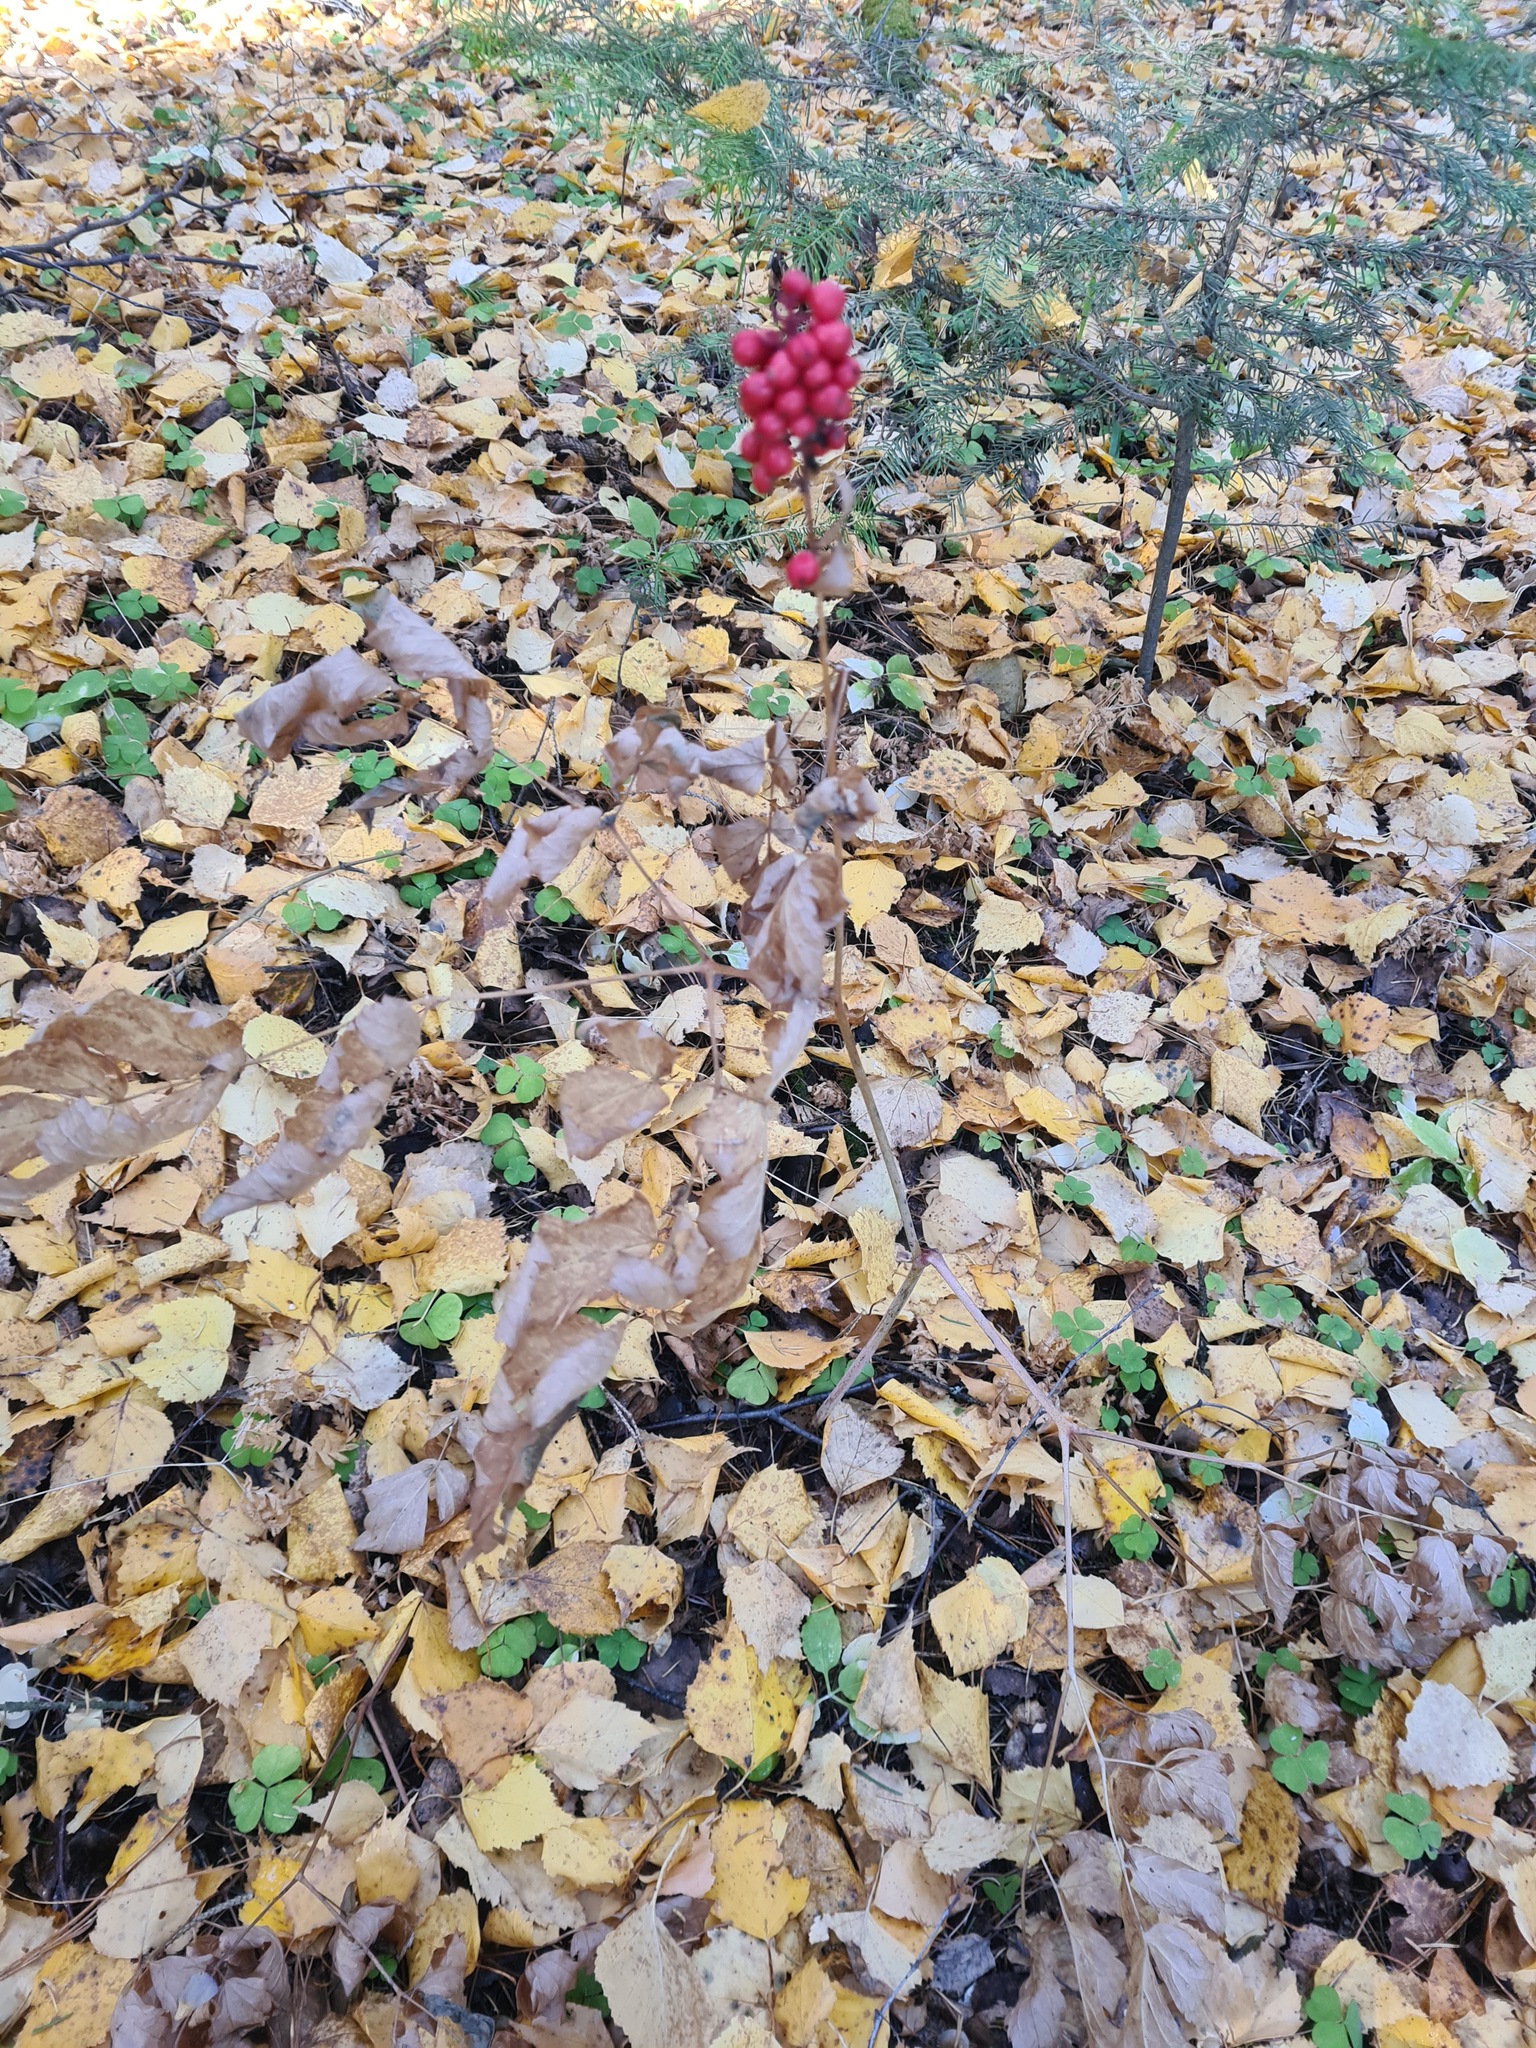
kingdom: Plantae
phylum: Tracheophyta
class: Magnoliopsida
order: Ranunculales
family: Ranunculaceae
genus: Actaea
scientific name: Actaea erythrocarpa
